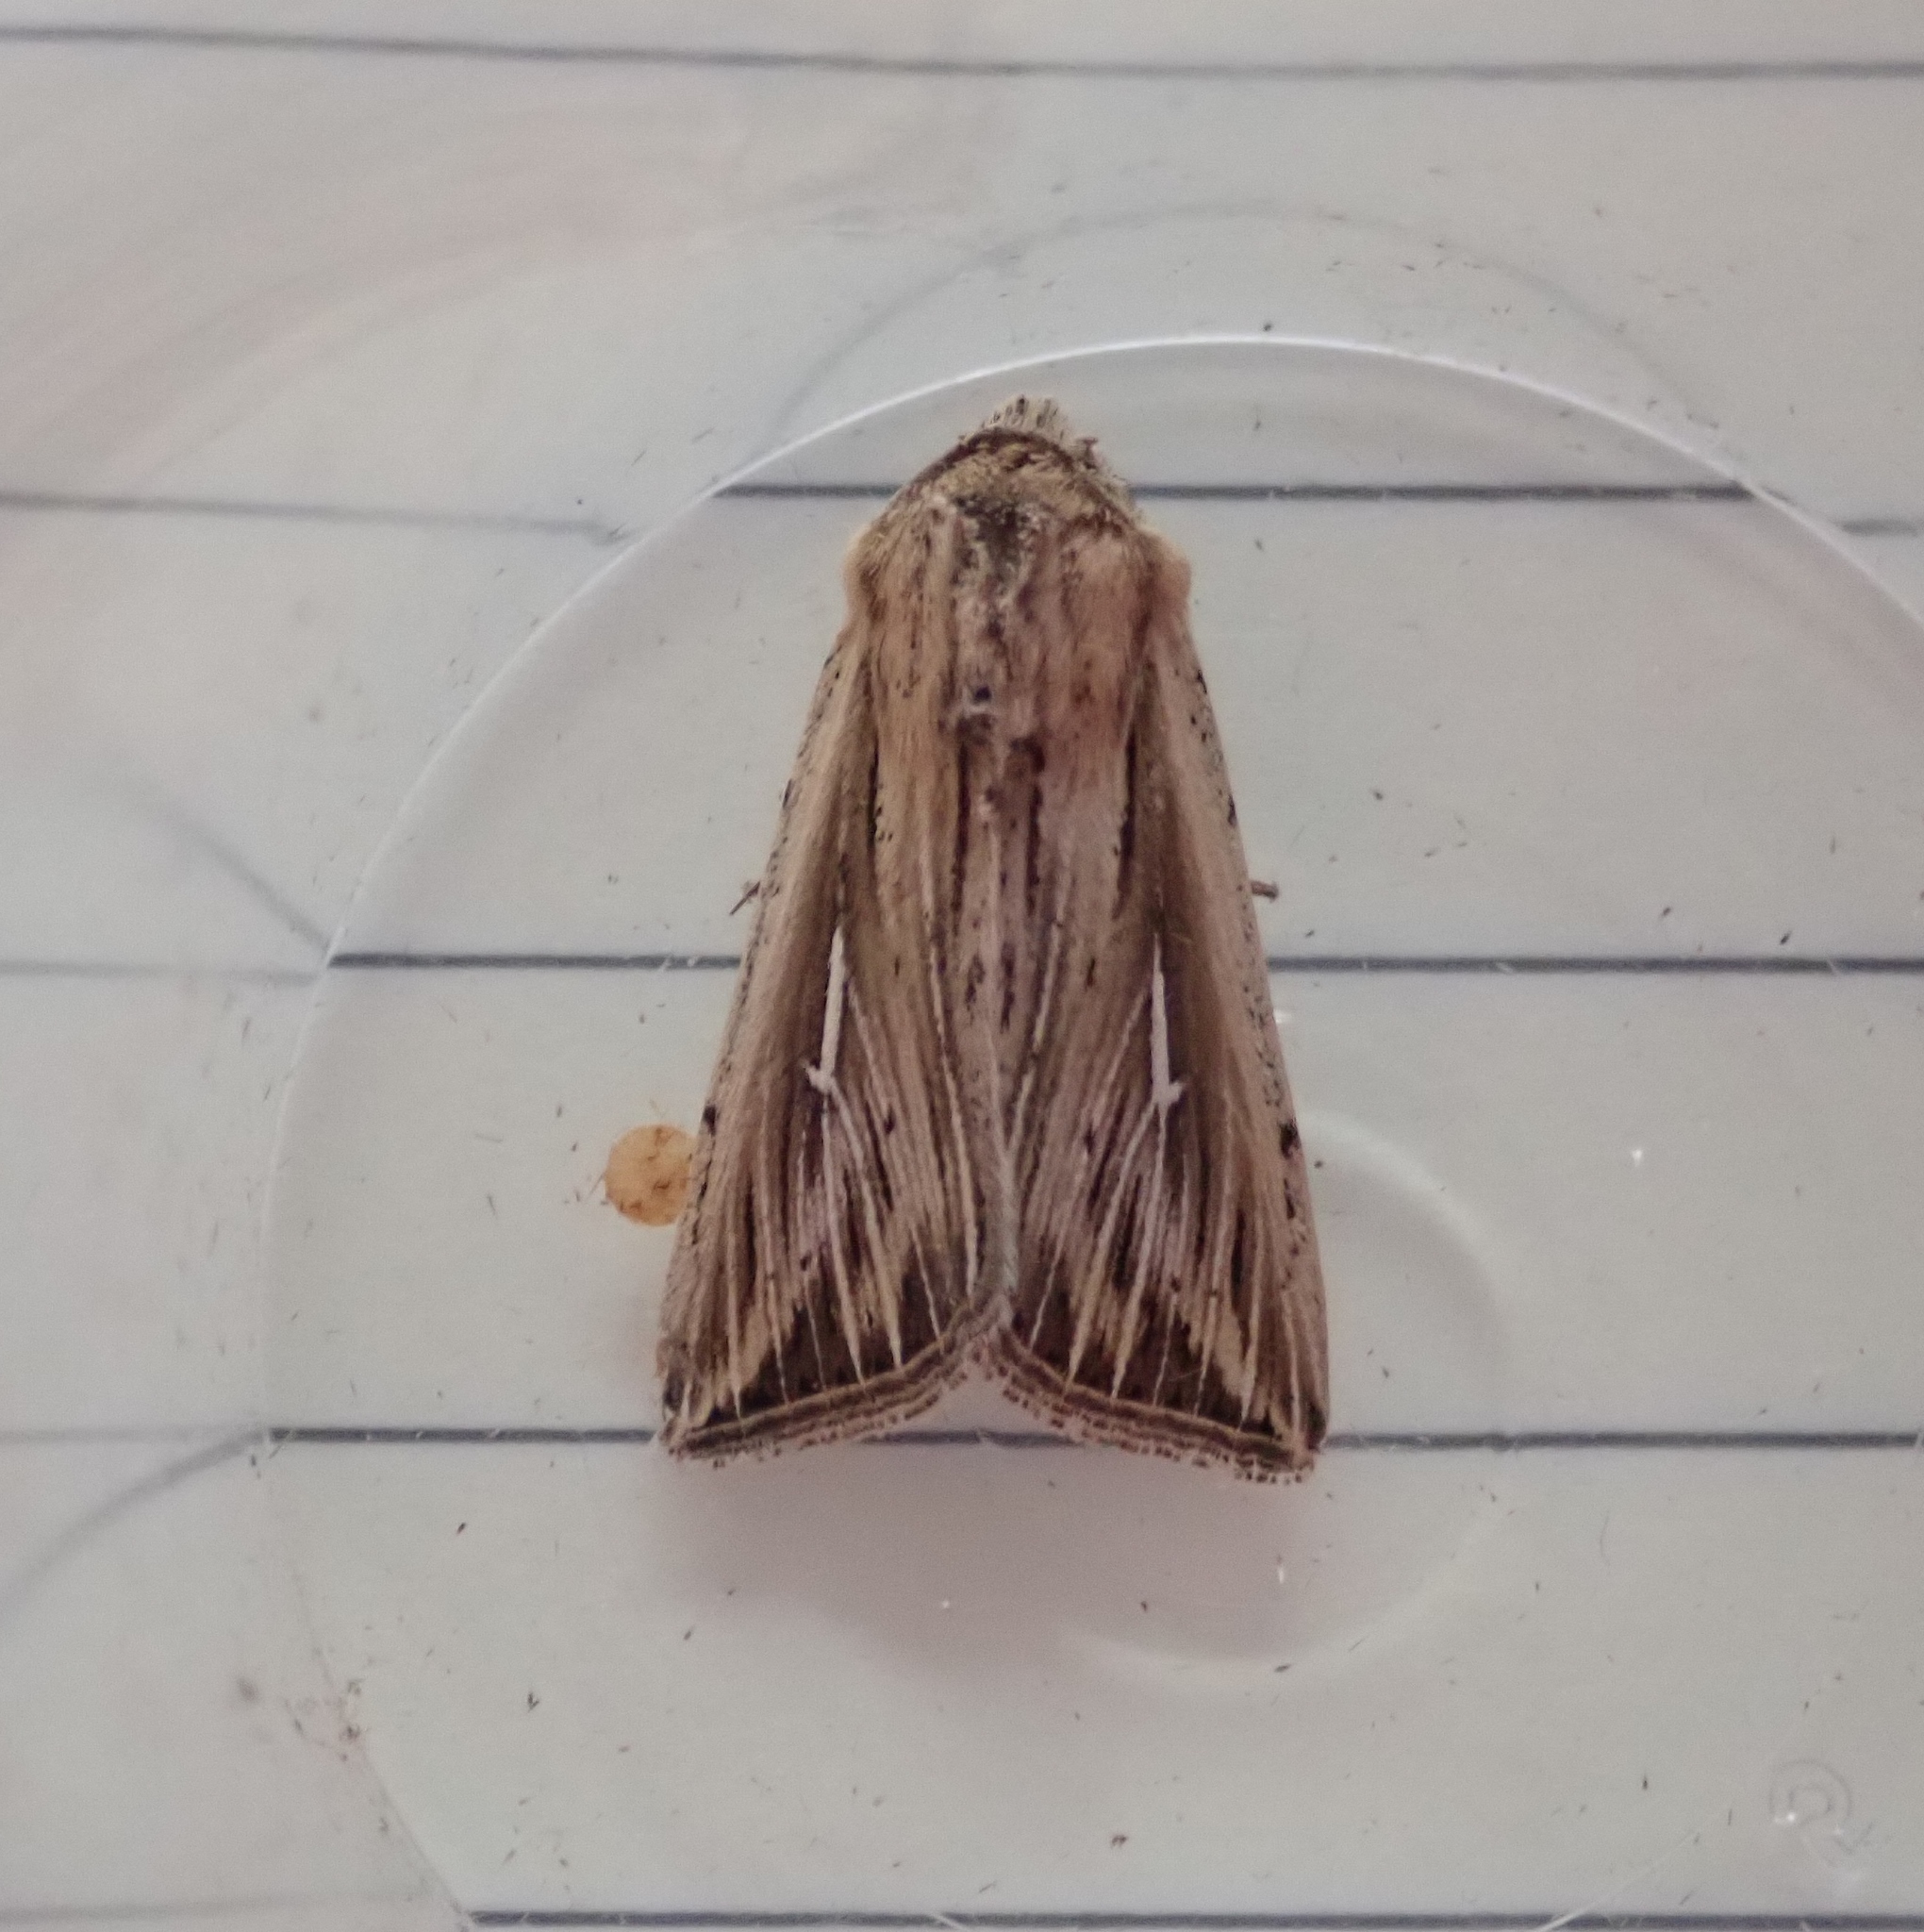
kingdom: Animalia
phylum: Arthropoda
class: Insecta
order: Lepidoptera
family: Noctuidae
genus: Mythimna
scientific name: Mythimna l-album
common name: L-album wainscot
